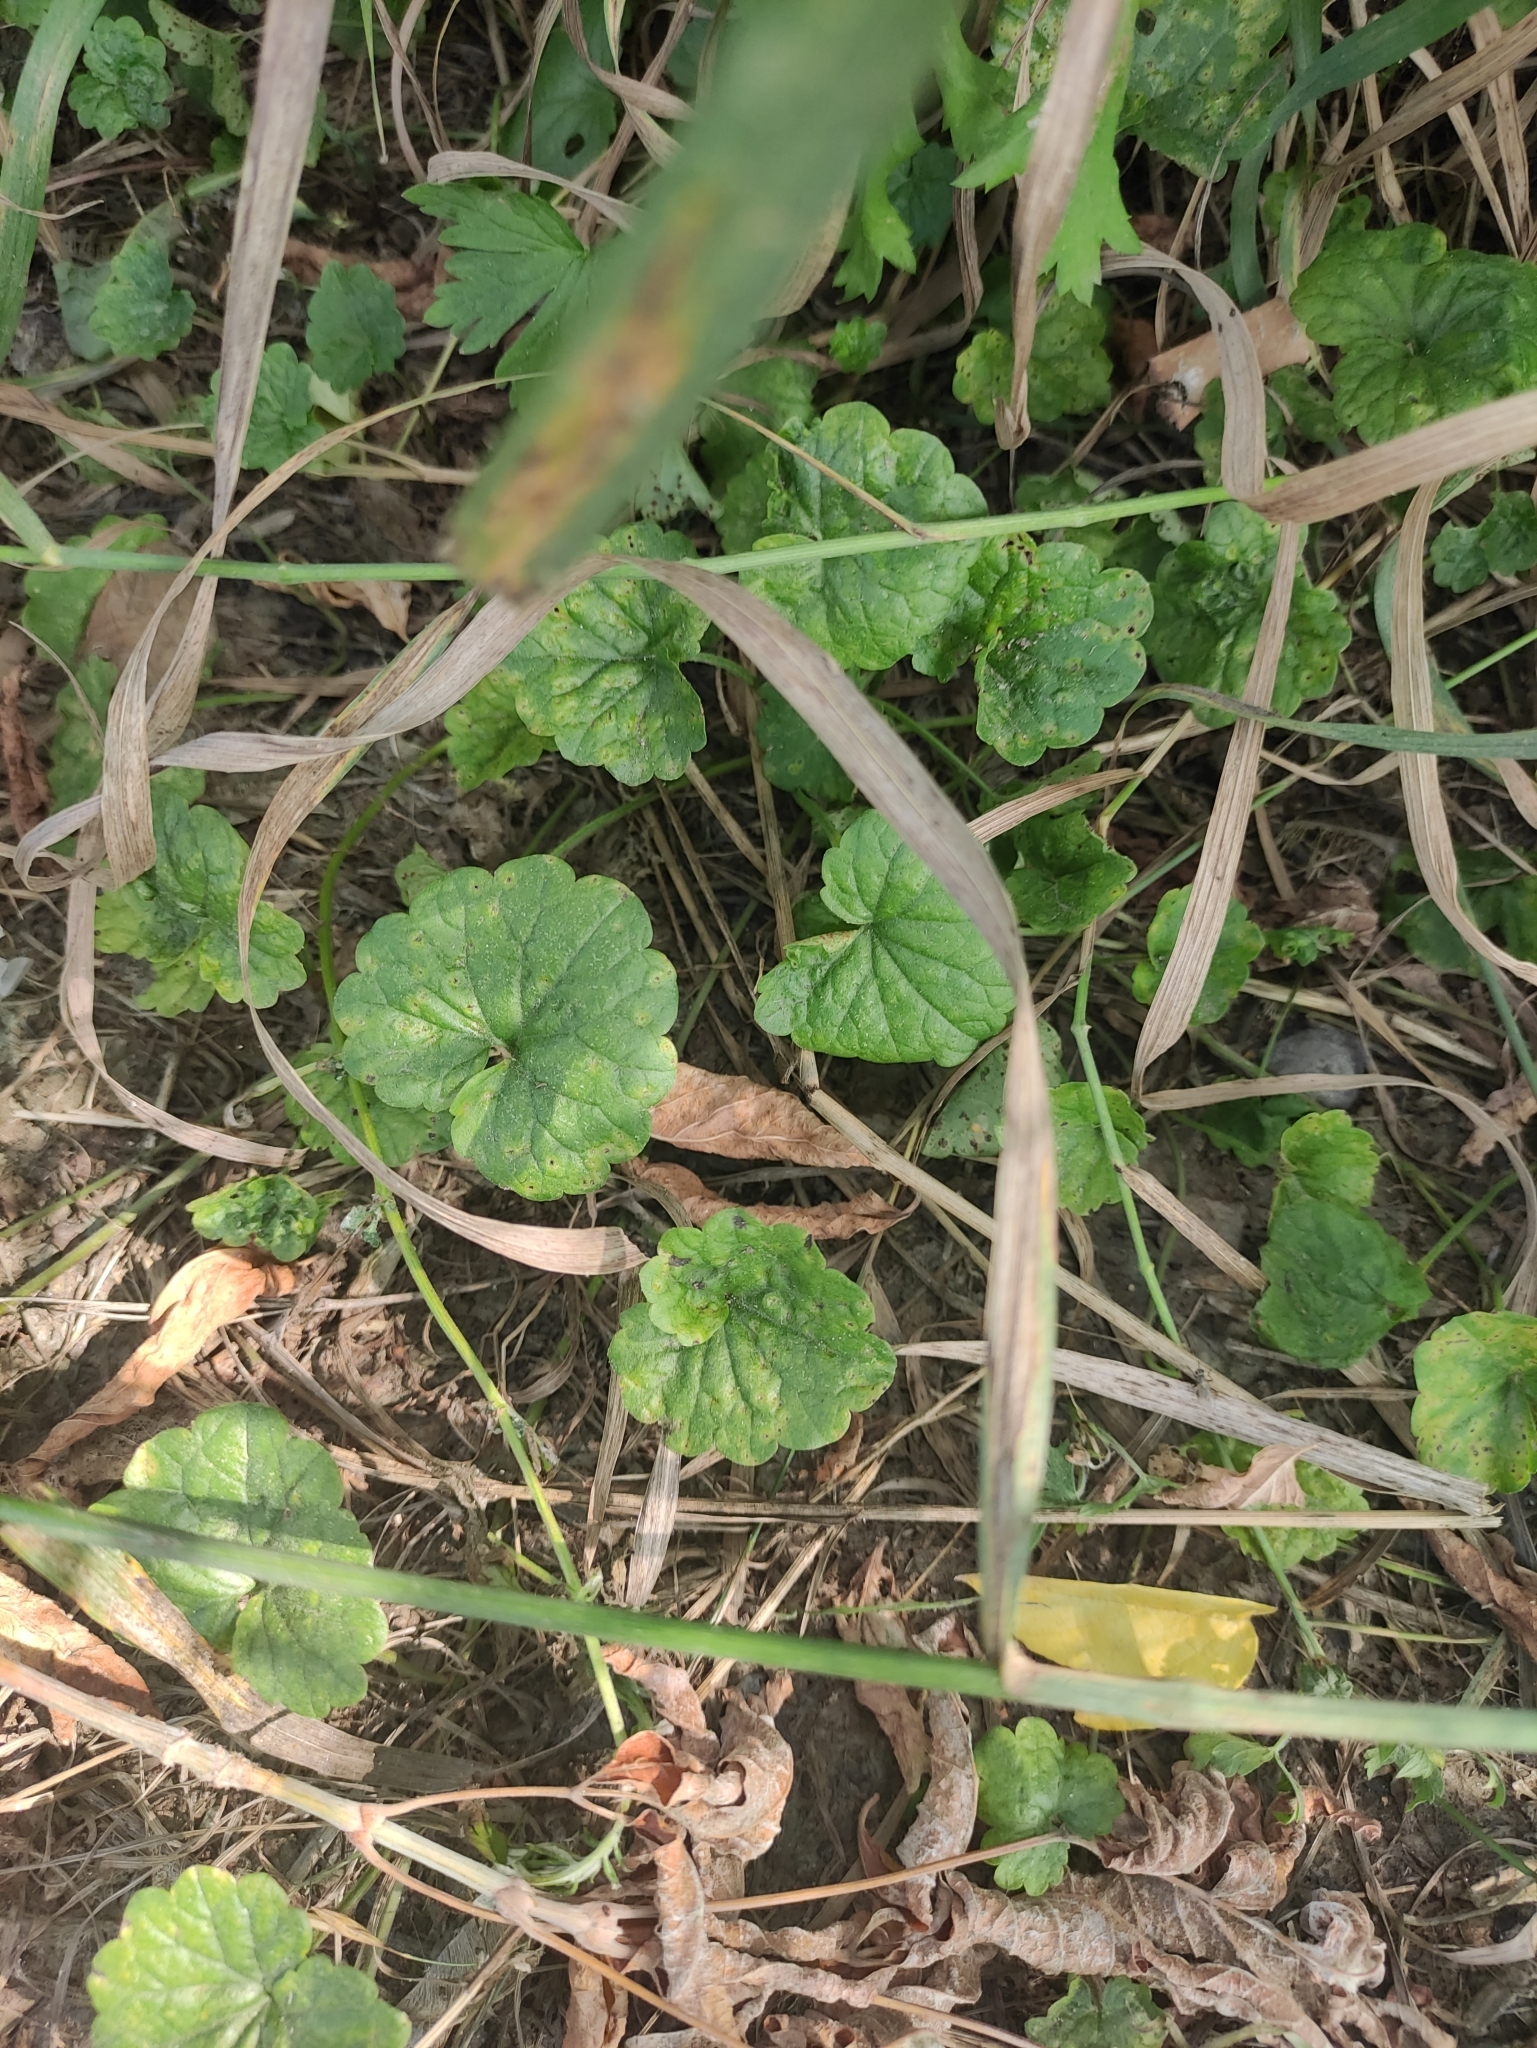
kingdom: Plantae
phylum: Tracheophyta
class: Magnoliopsida
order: Lamiales
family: Lamiaceae
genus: Glechoma
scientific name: Glechoma hederacea
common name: Ground ivy
